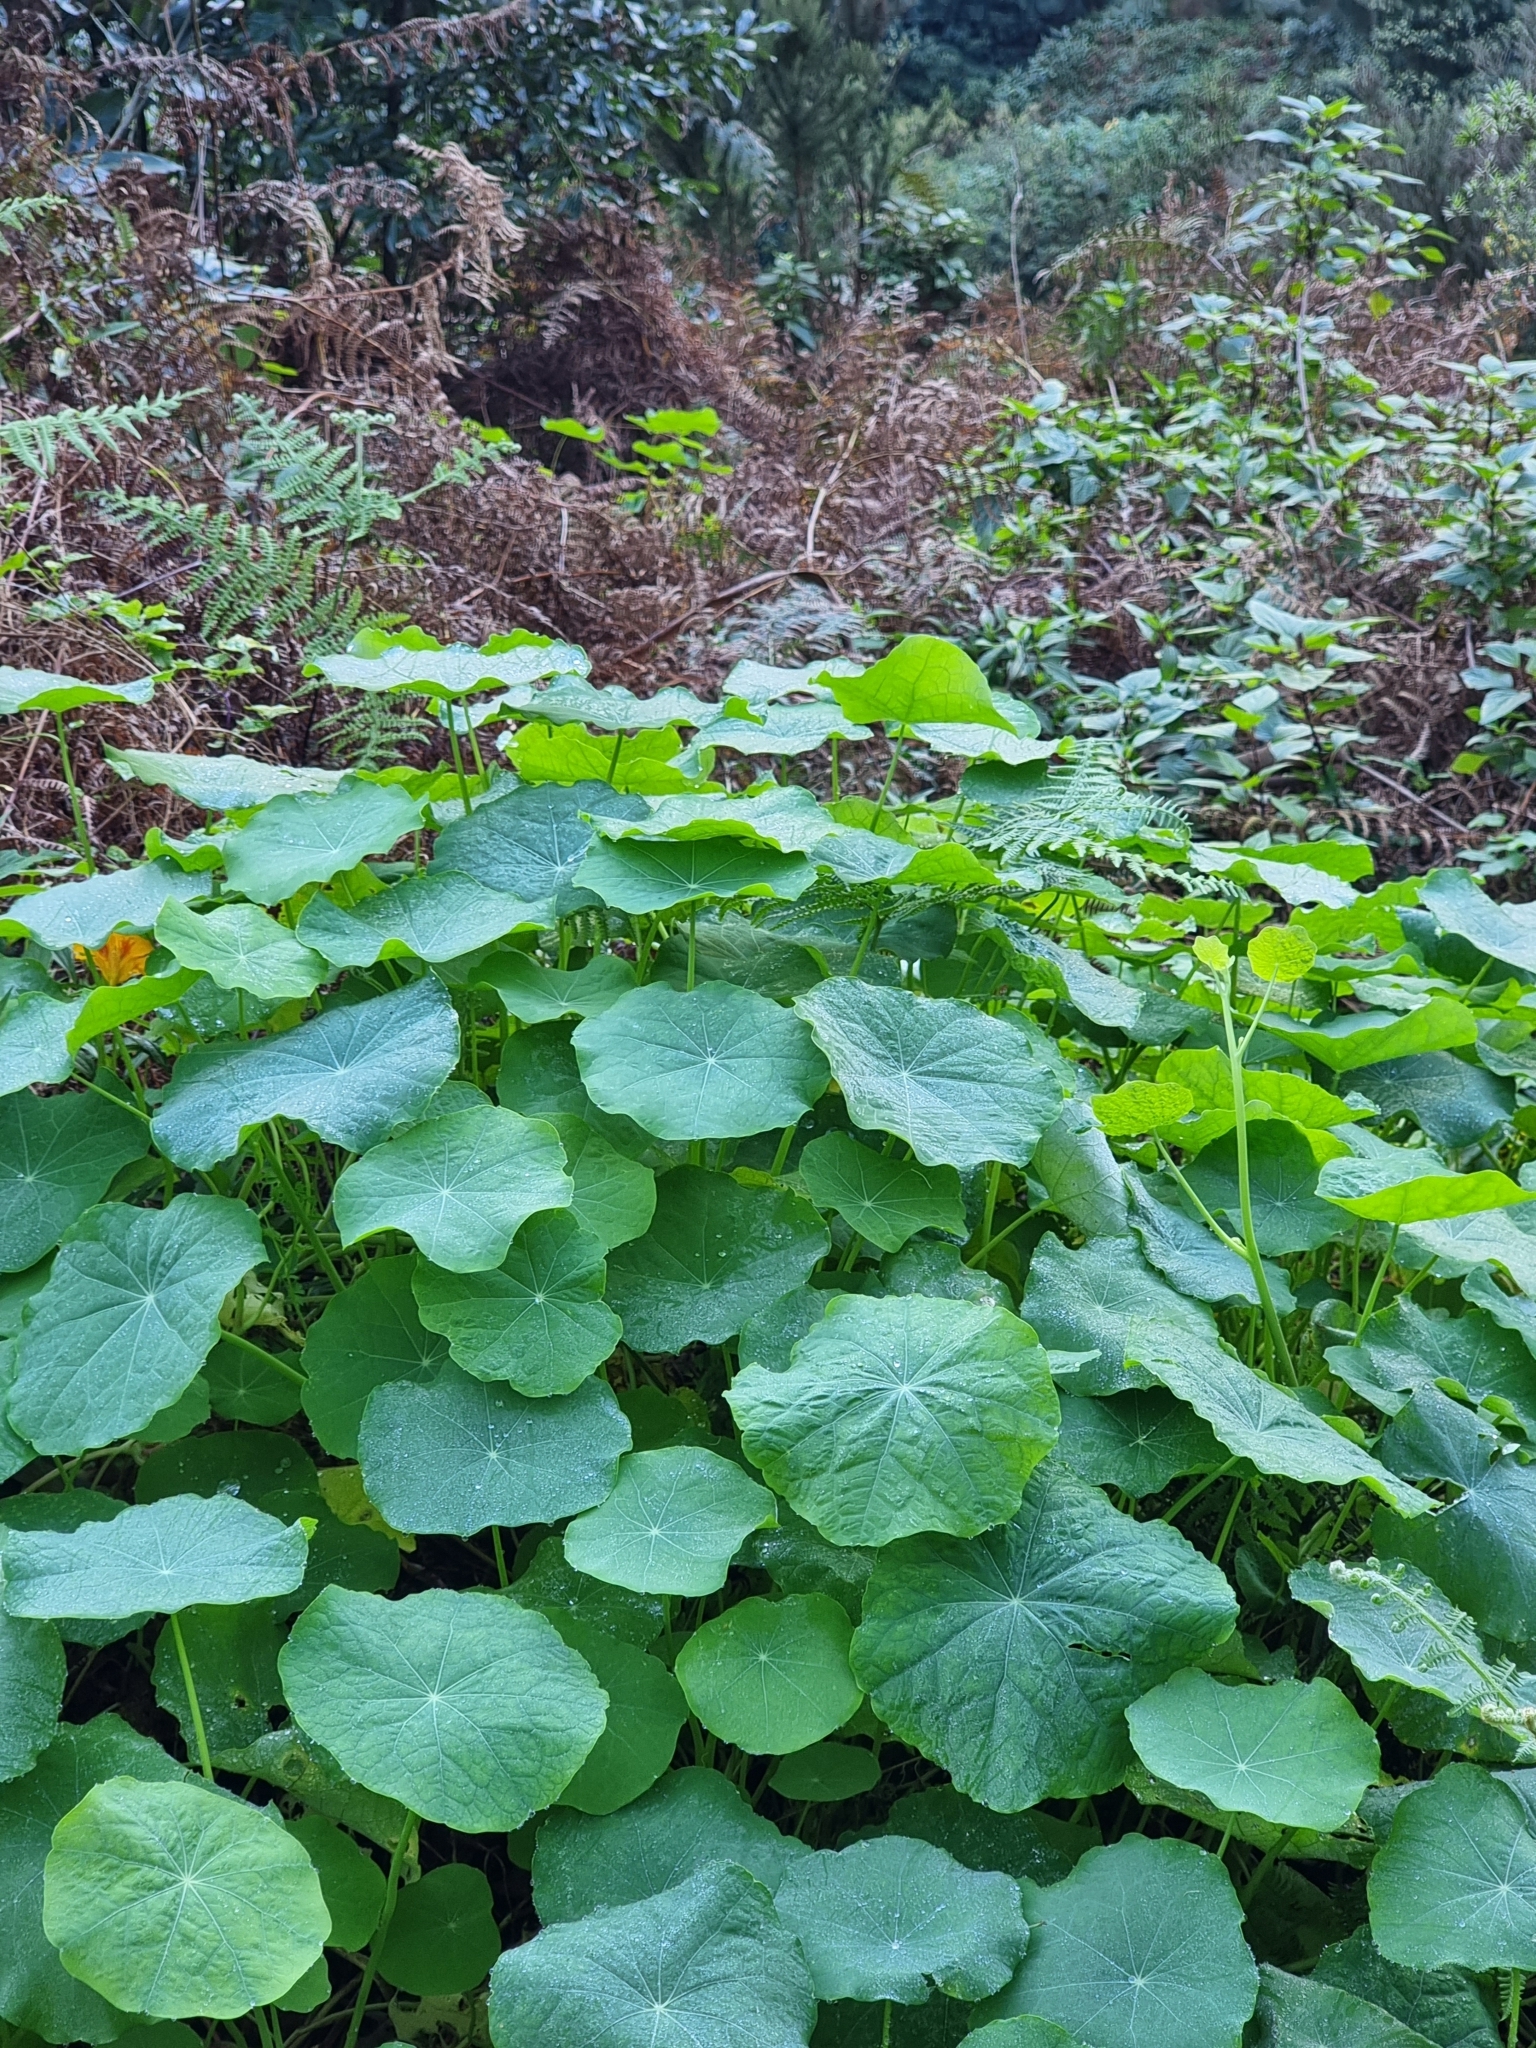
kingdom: Plantae
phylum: Tracheophyta
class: Magnoliopsida
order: Brassicales
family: Tropaeolaceae
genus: Tropaeolum
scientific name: Tropaeolum majus
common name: Nasturtium
